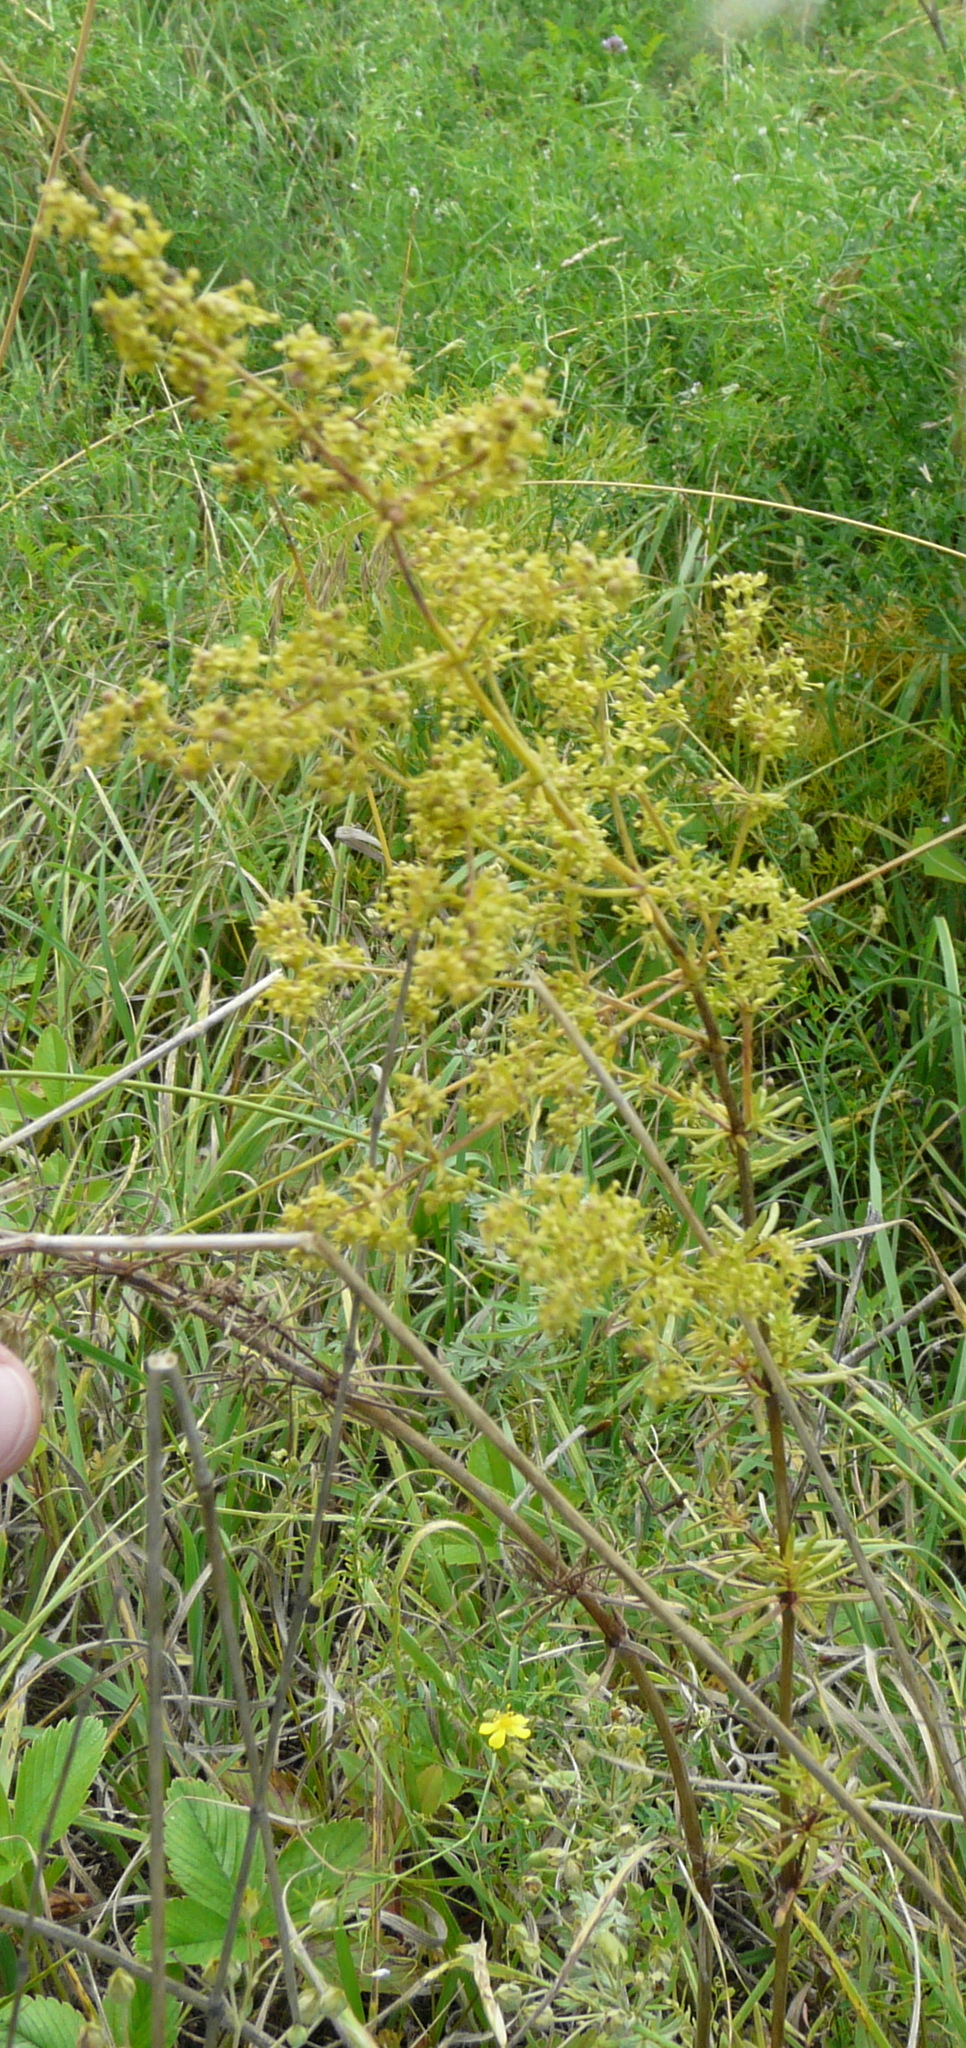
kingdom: Plantae
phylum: Tracheophyta
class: Magnoliopsida
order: Gentianales
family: Rubiaceae
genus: Galium
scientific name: Galium verum
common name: Lady's bedstraw
